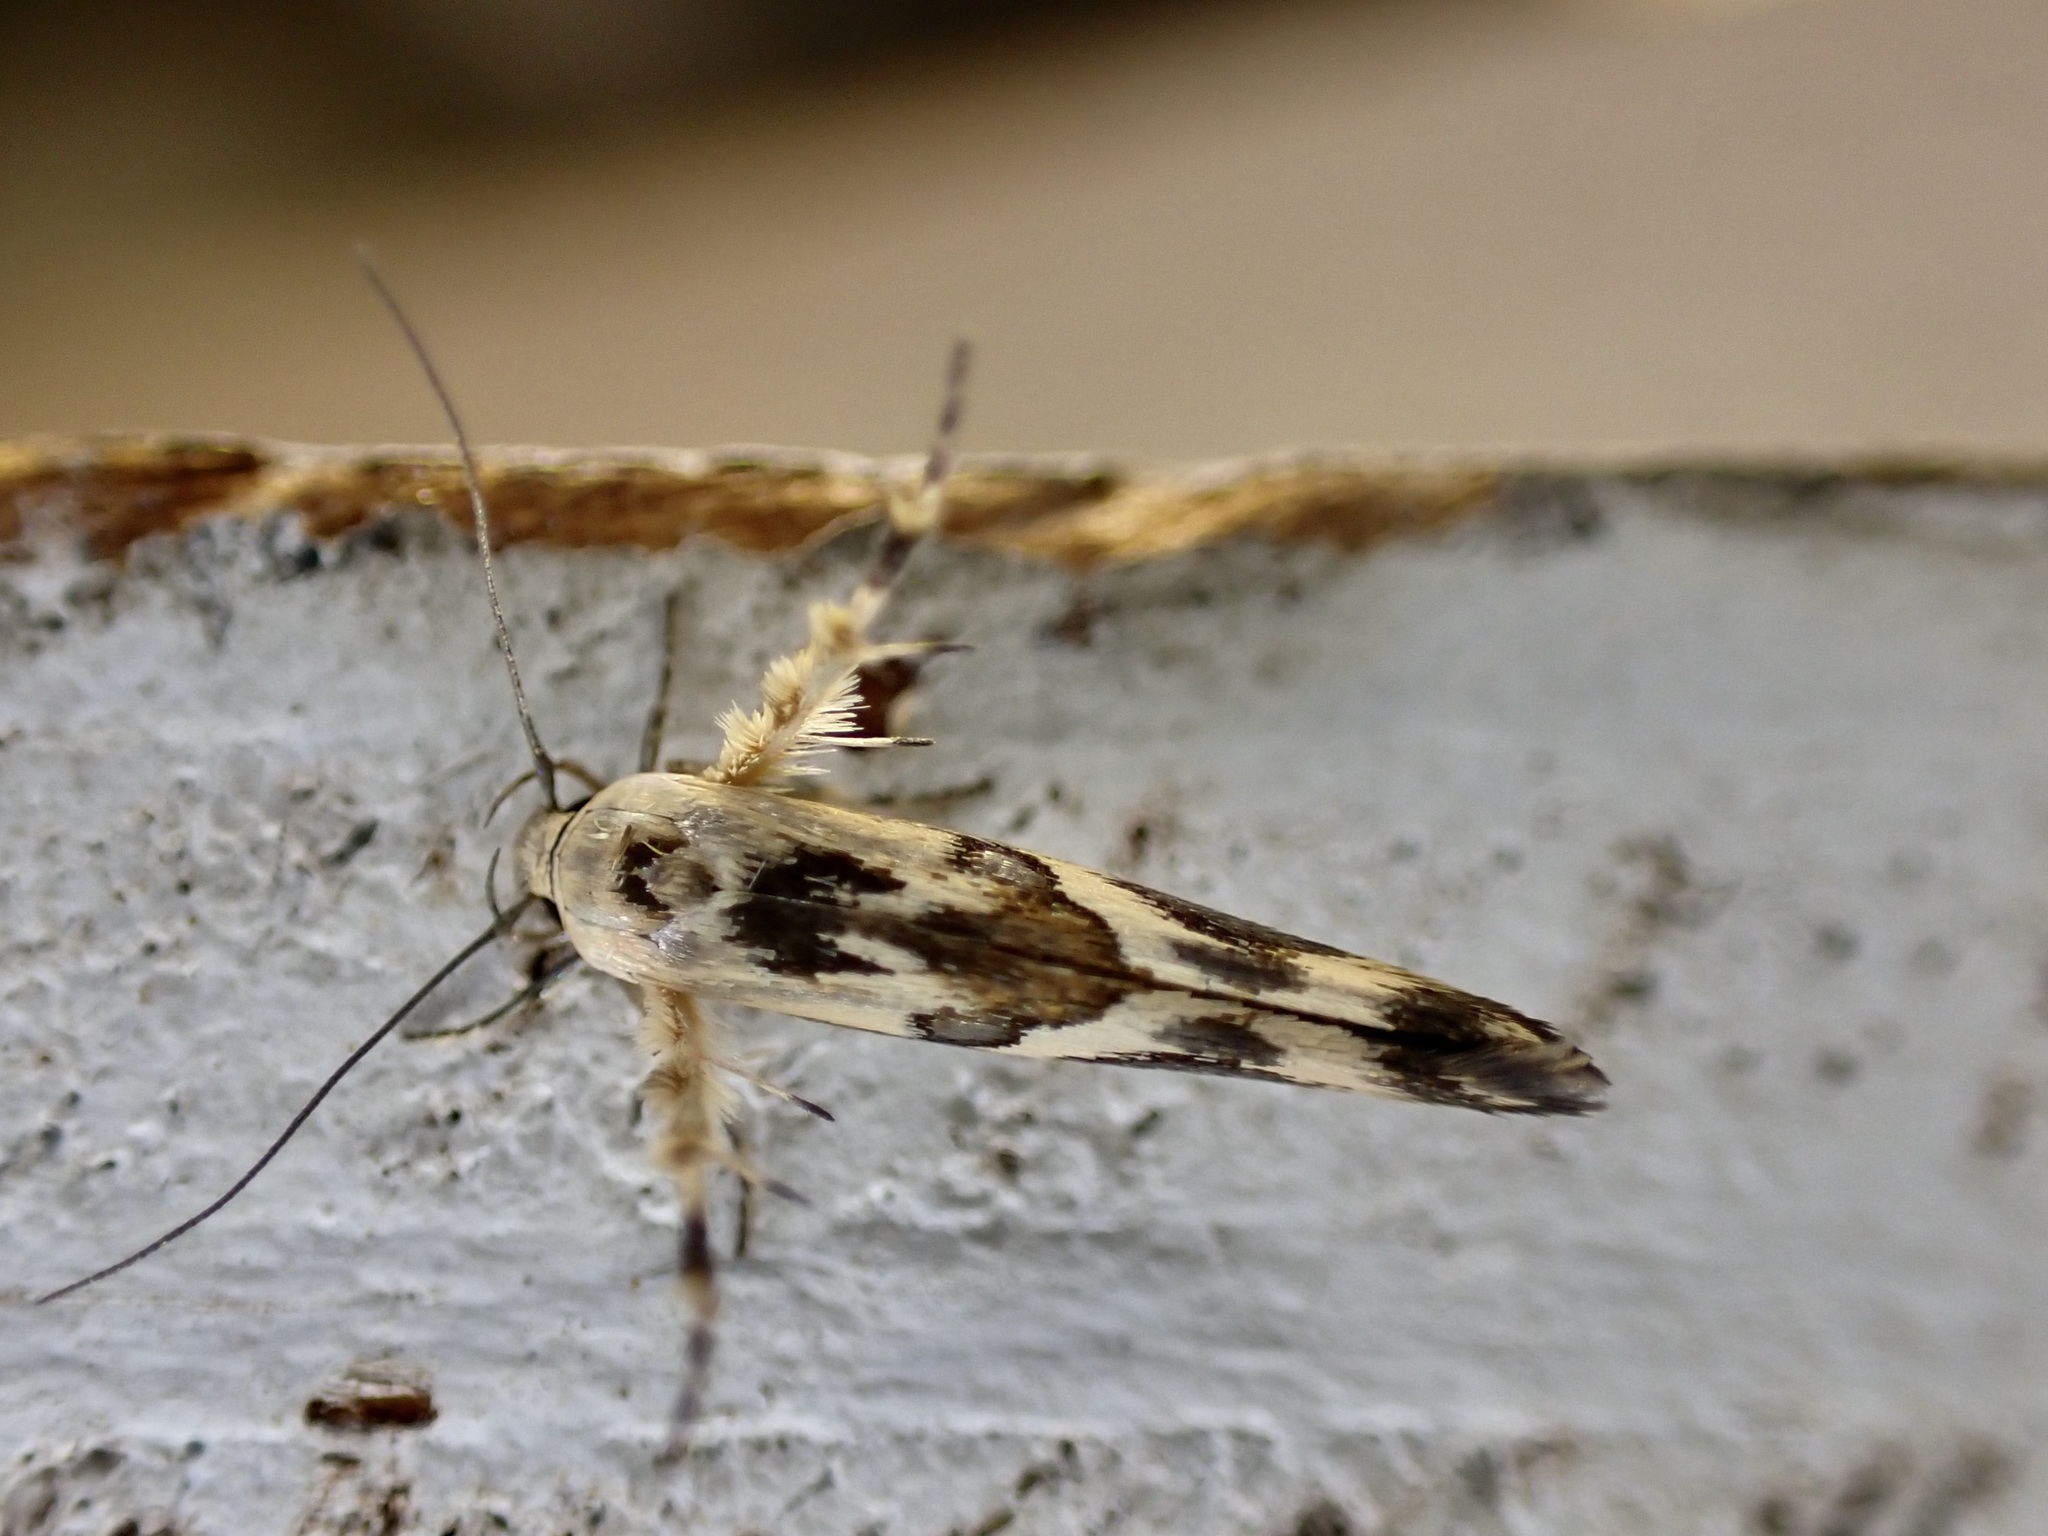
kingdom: Animalia
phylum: Arthropoda
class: Insecta
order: Lepidoptera
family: Stathmopodidae
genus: Stathmopoda
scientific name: Stathmopoda melanochra
